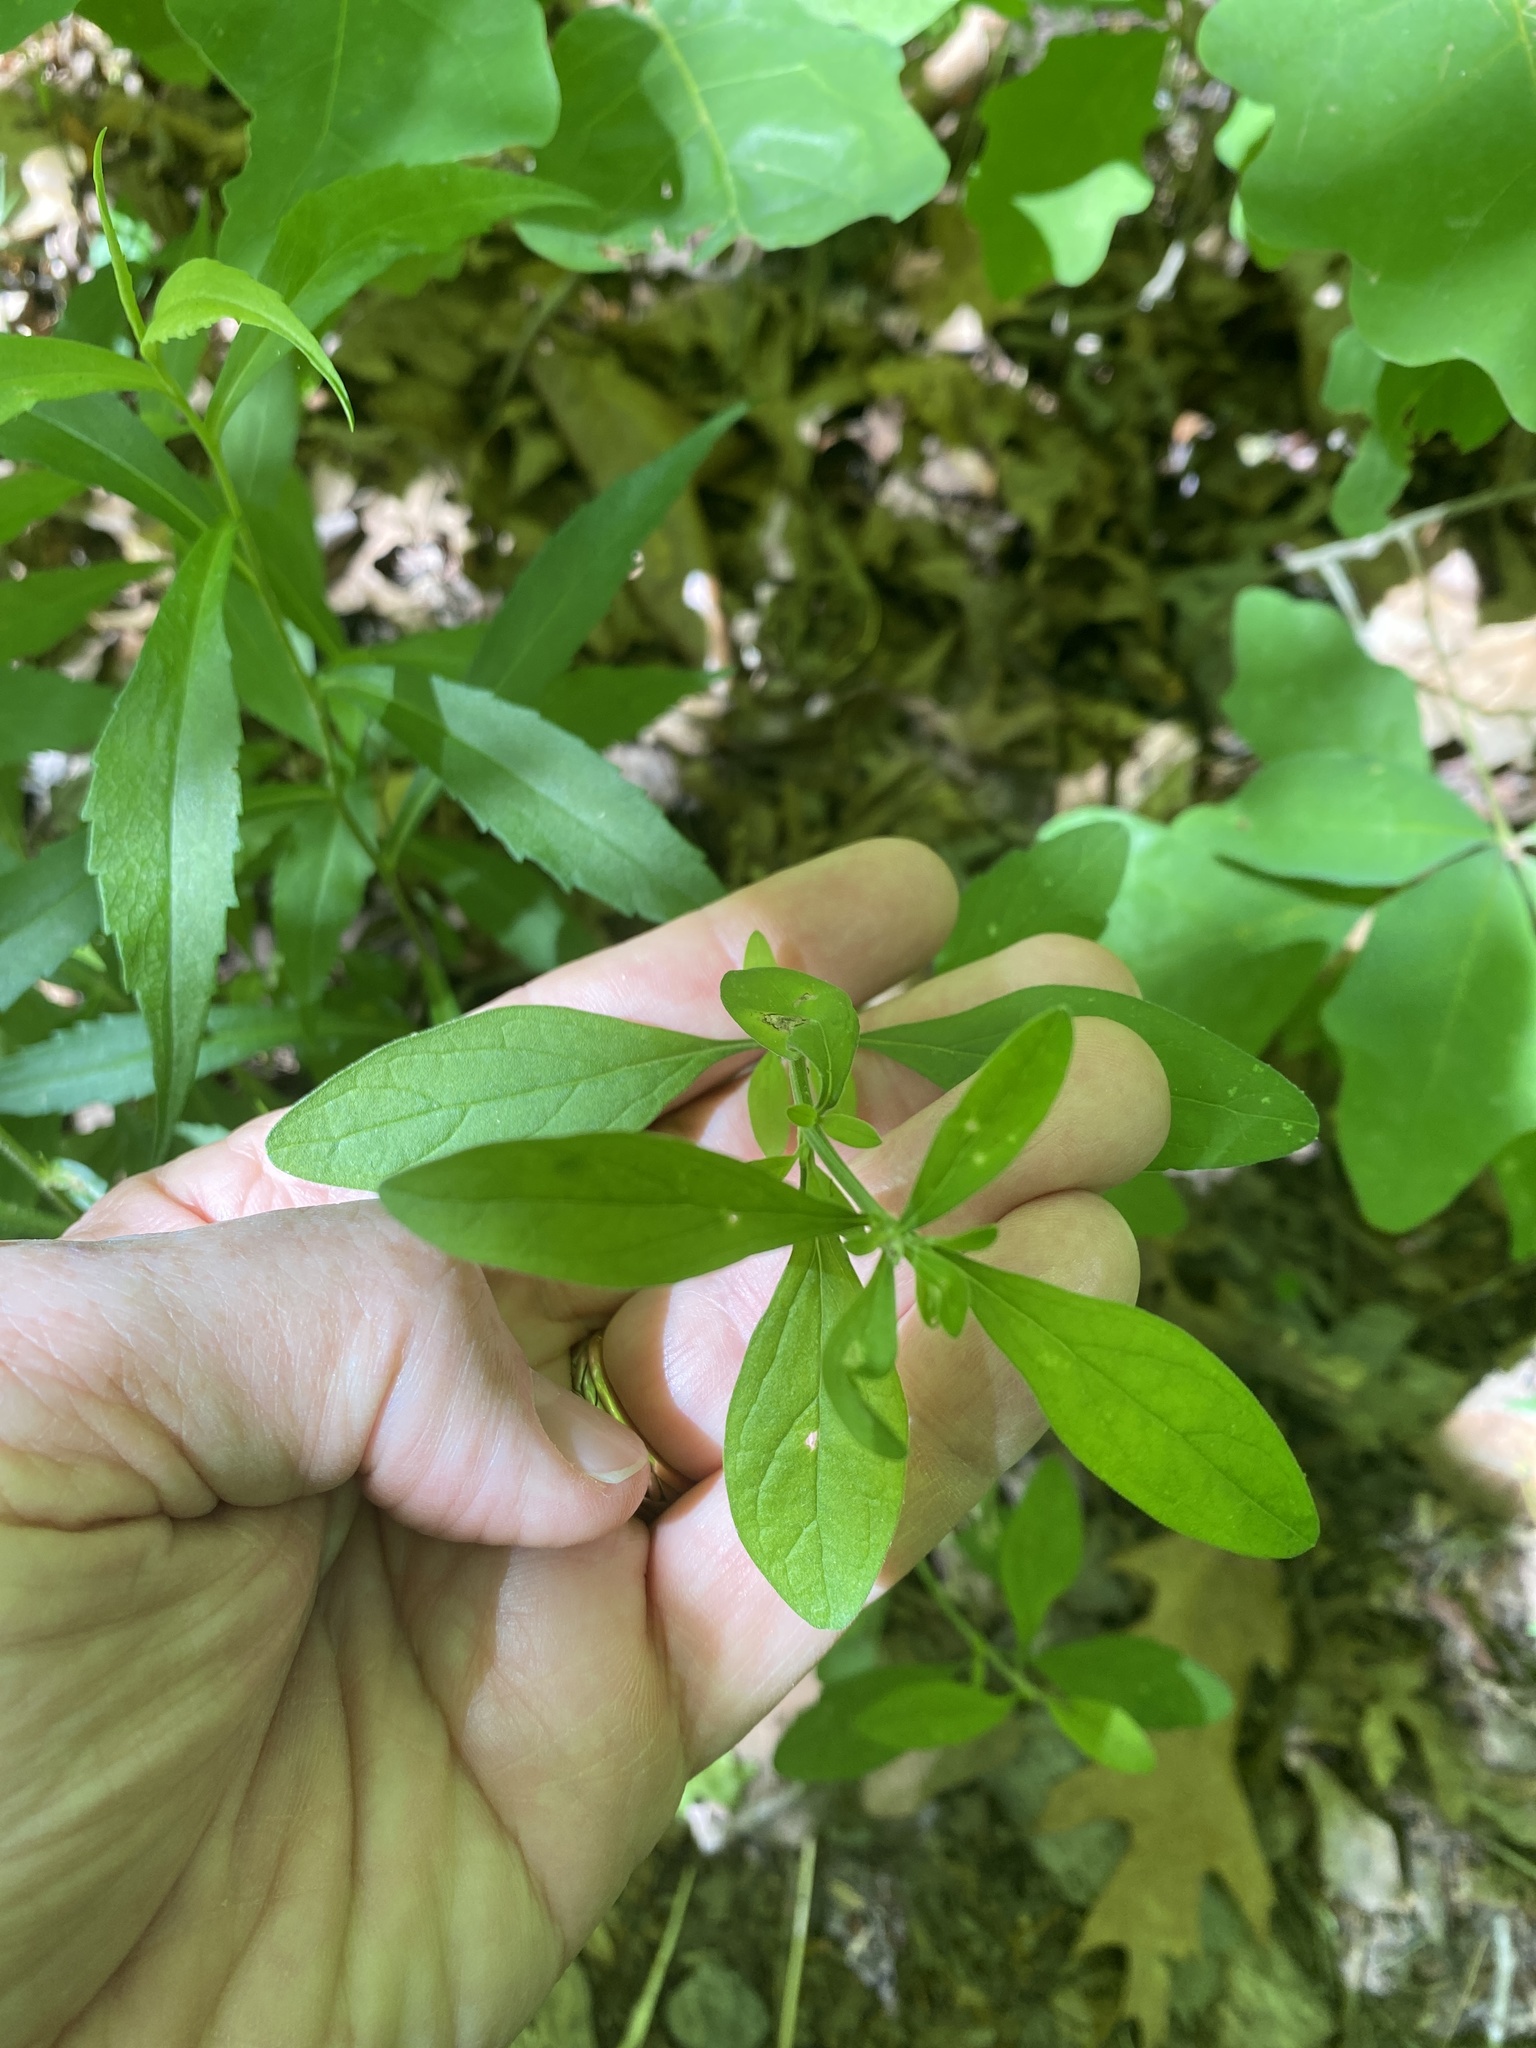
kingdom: Plantae
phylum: Tracheophyta
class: Magnoliopsida
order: Lamiales
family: Lamiaceae
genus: Scutellaria
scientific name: Scutellaria integrifolia
